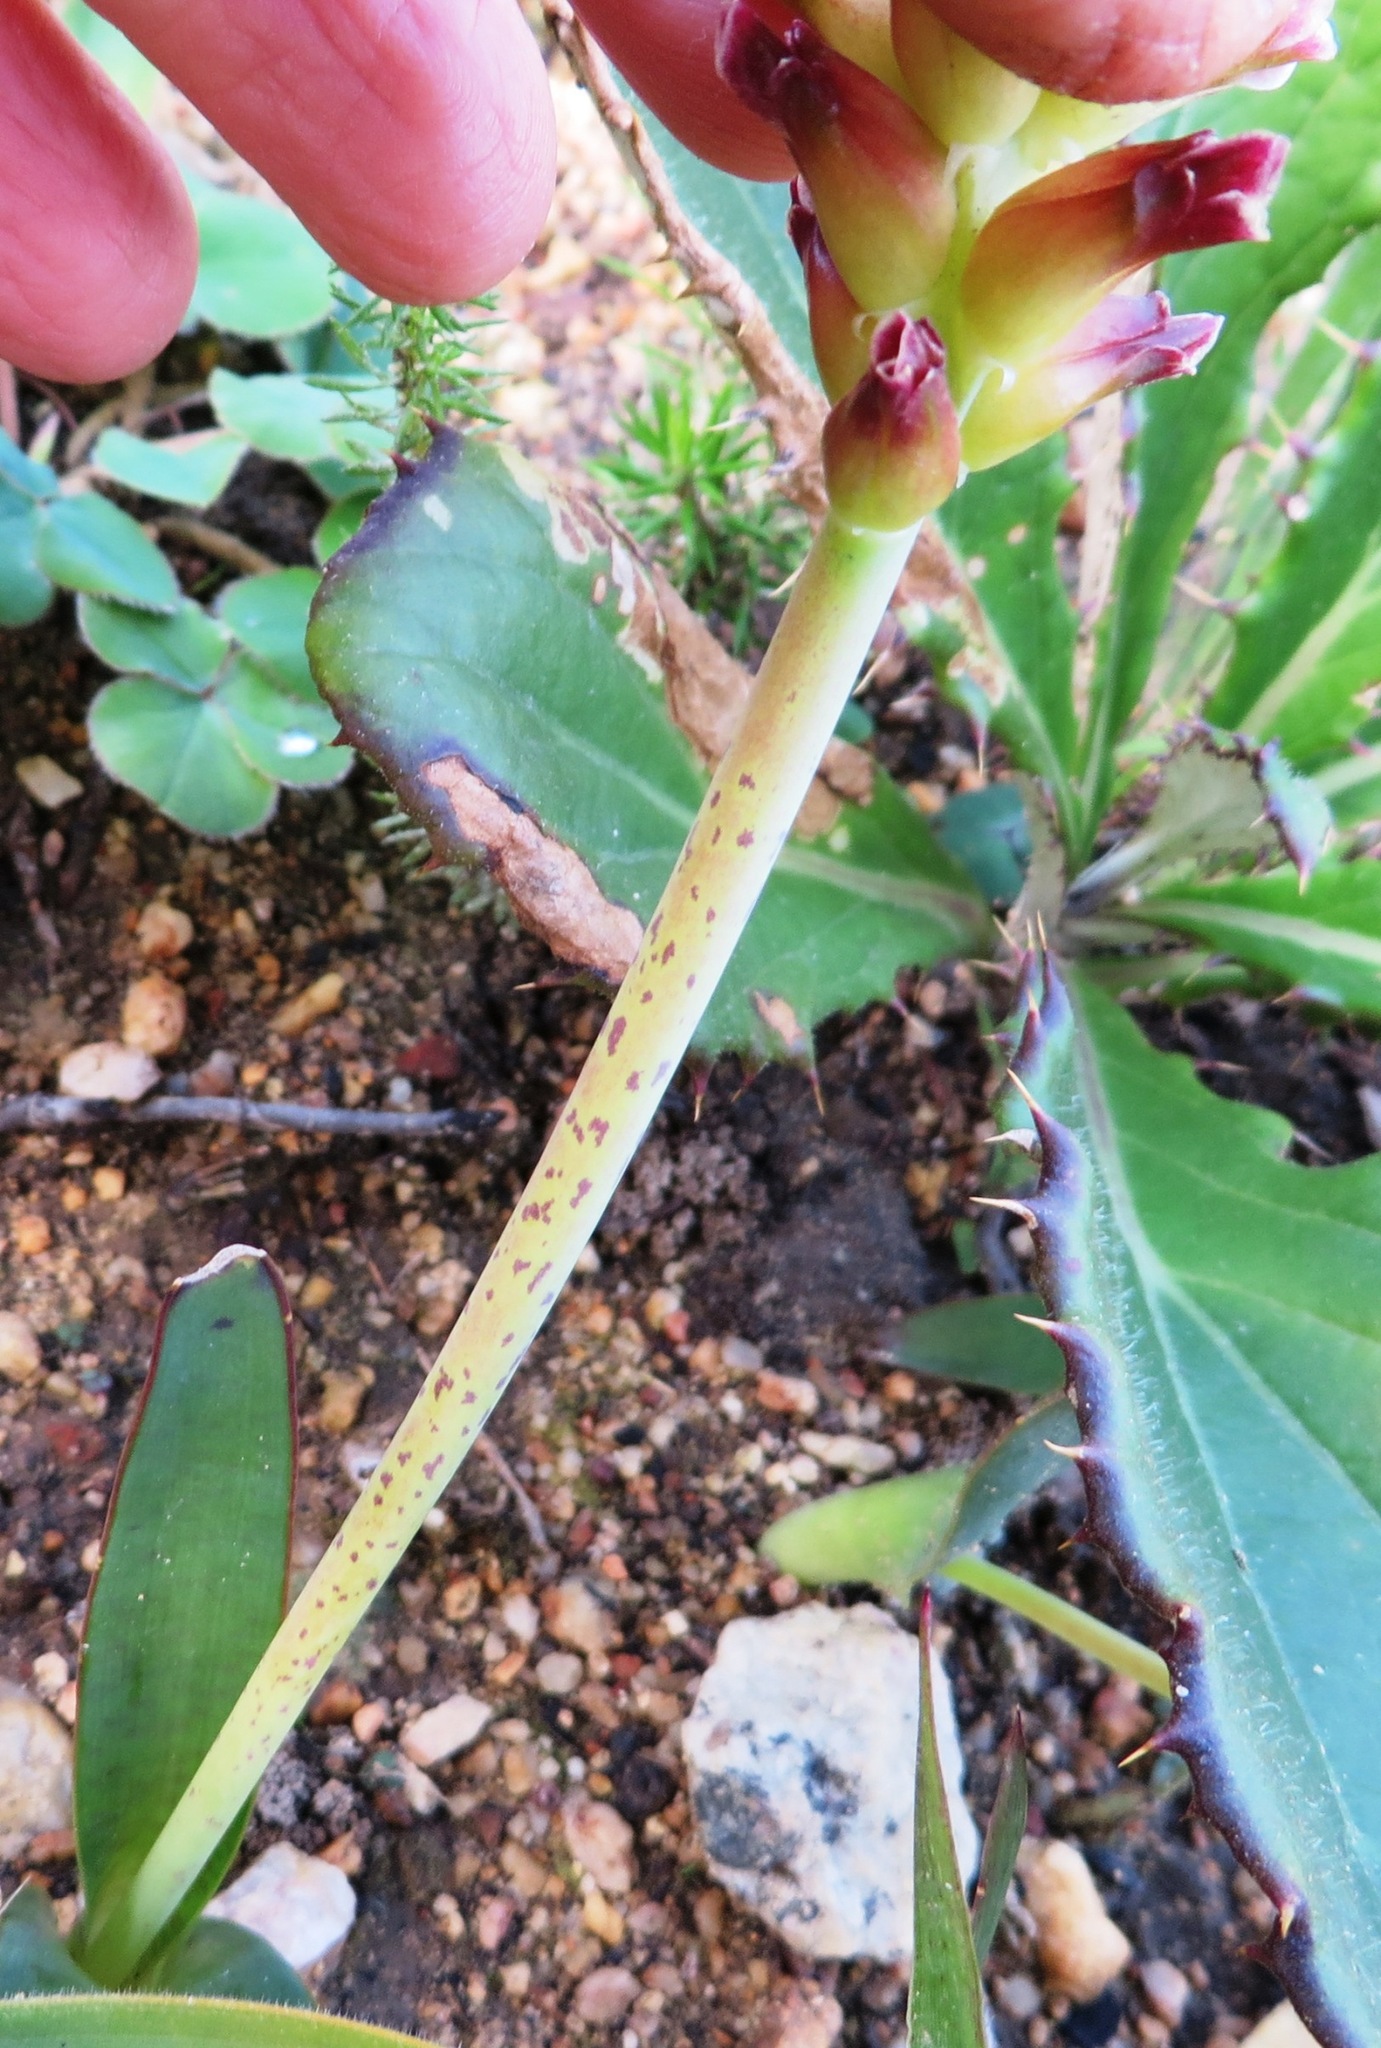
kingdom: Plantae
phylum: Tracheophyta
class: Liliopsida
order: Asparagales
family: Asparagaceae
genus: Lachenalia
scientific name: Lachenalia lutea
